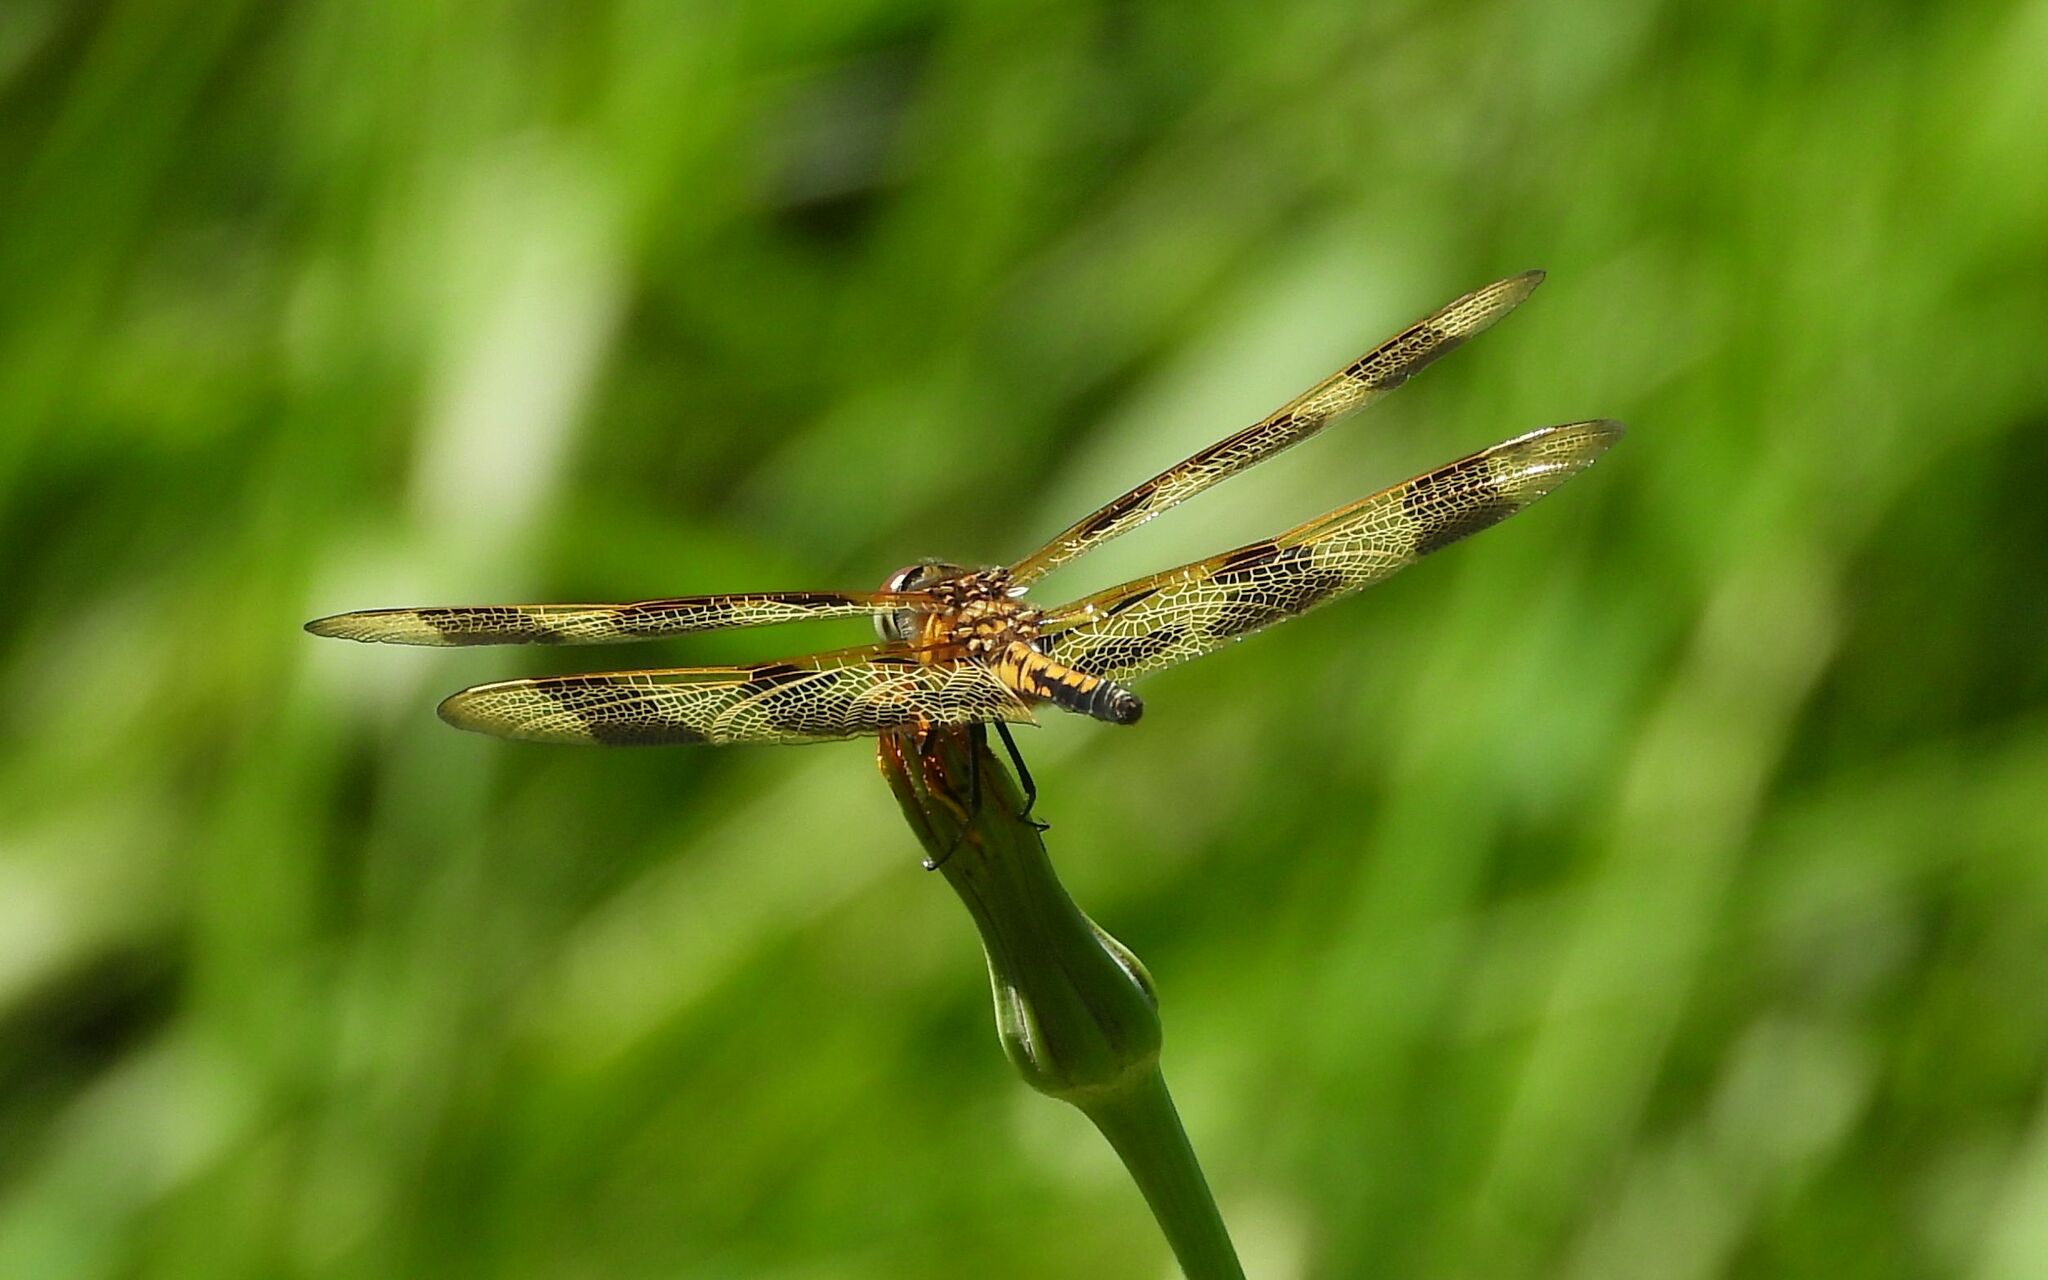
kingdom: Animalia
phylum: Arthropoda
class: Insecta
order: Odonata
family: Libellulidae
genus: Celithemis
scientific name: Celithemis eponina
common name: Halloween pennant
